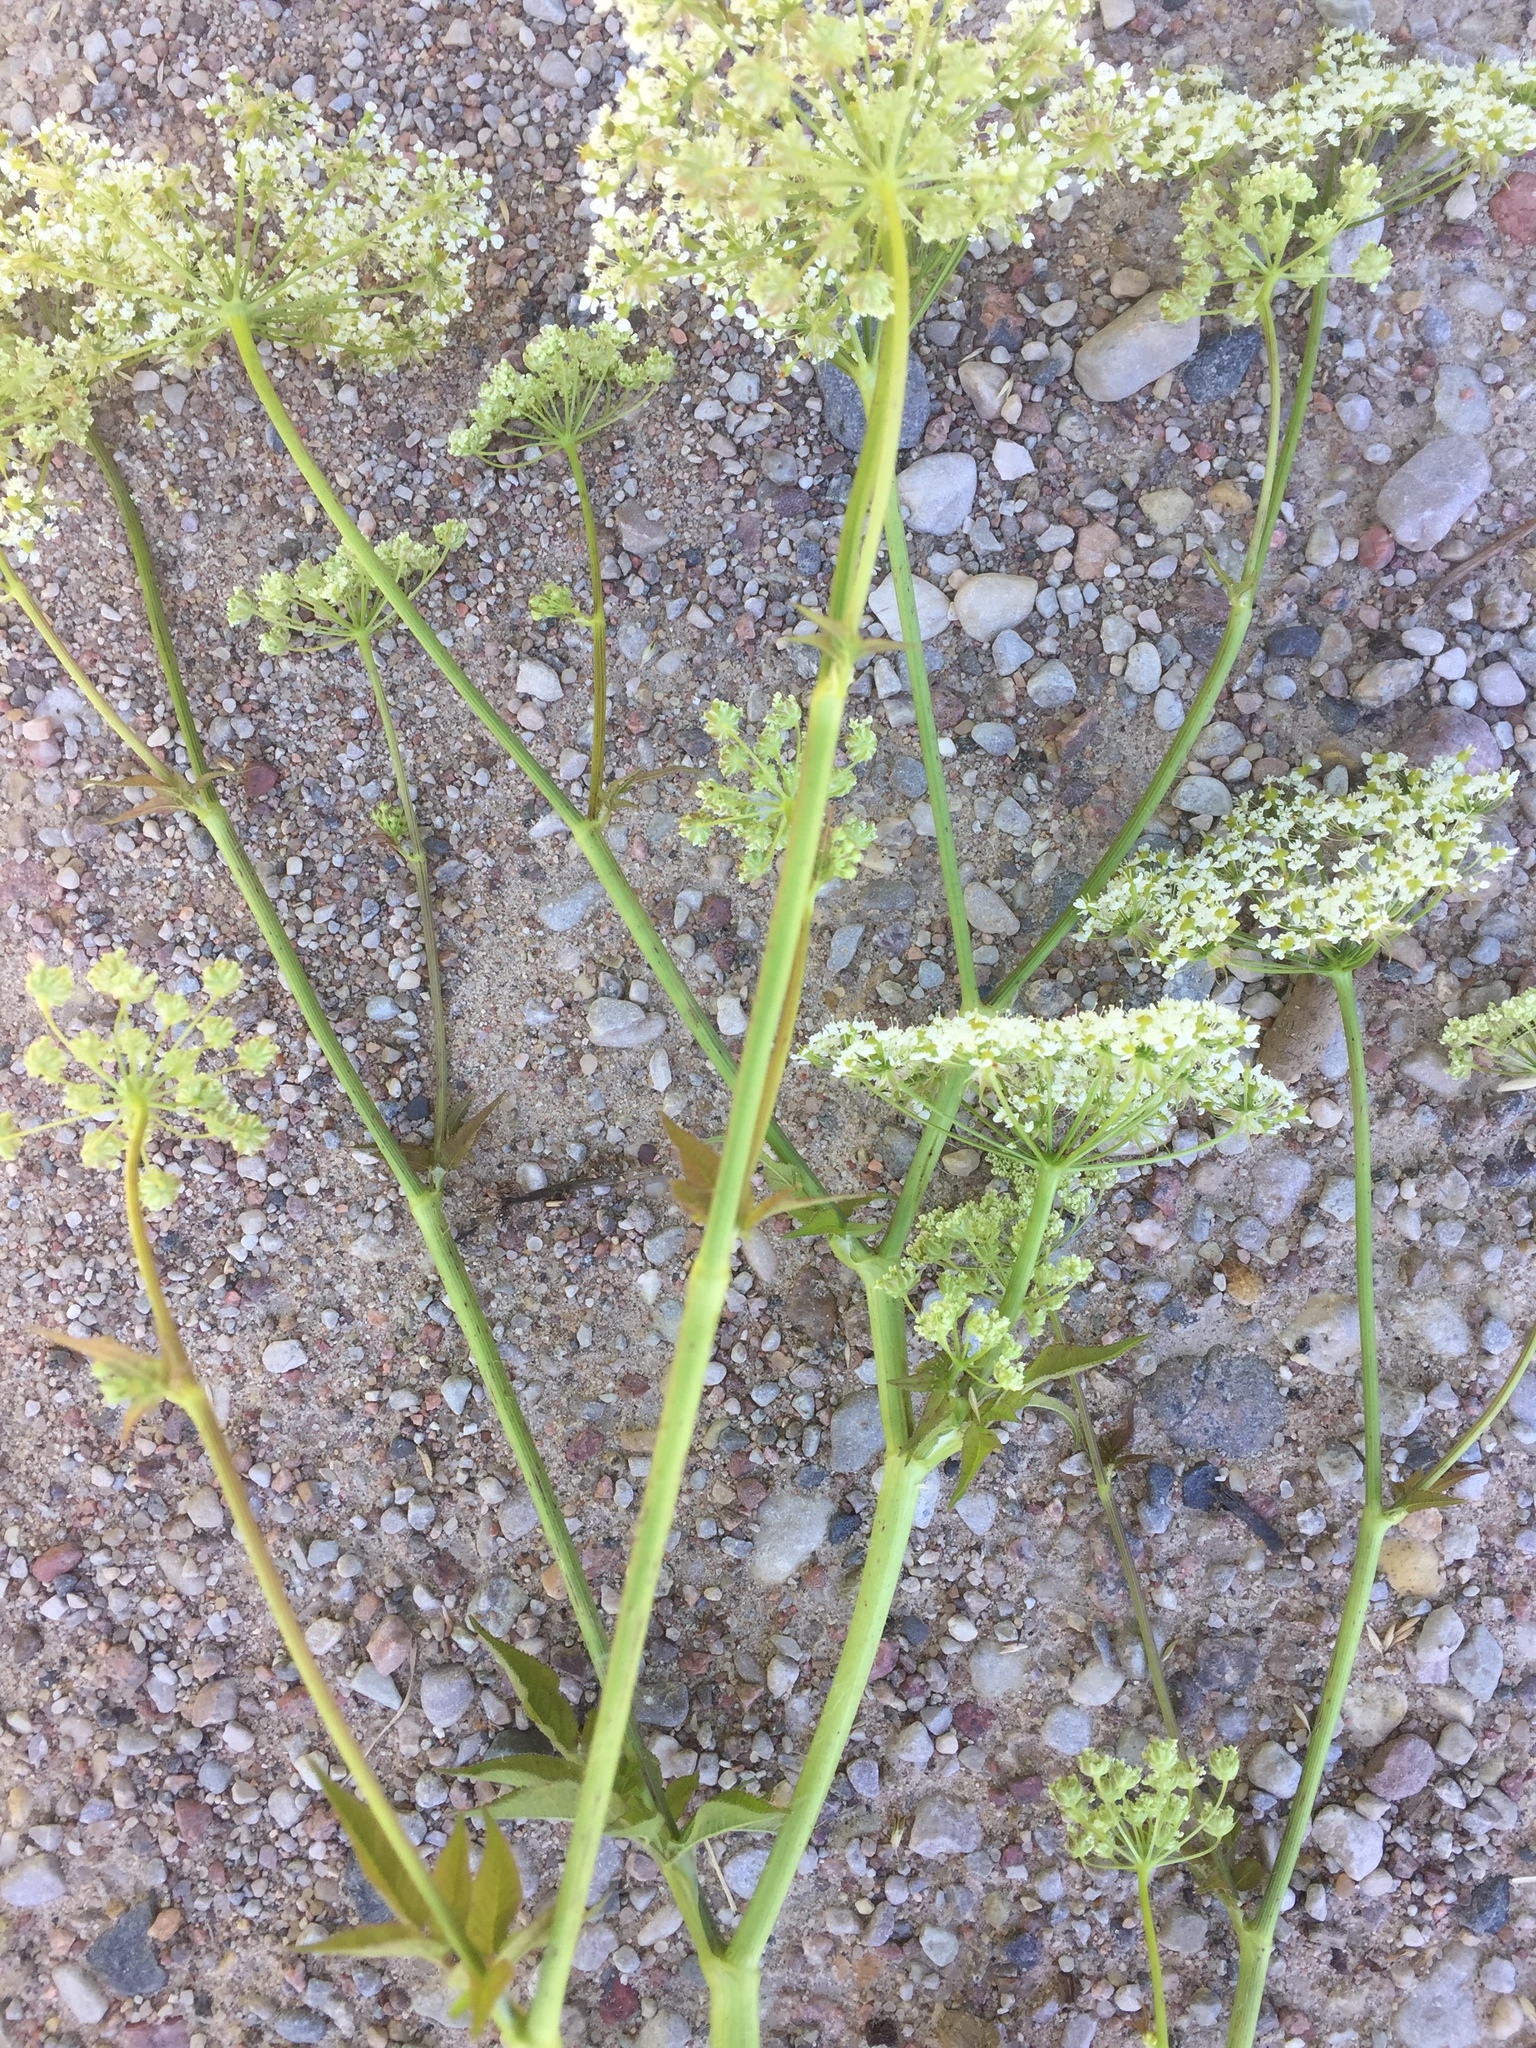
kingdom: Plantae
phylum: Tracheophyta
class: Magnoliopsida
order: Apiales
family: Apiaceae
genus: Chaerophyllum
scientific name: Chaerophyllum aromaticum
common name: Broadleaf chervil
